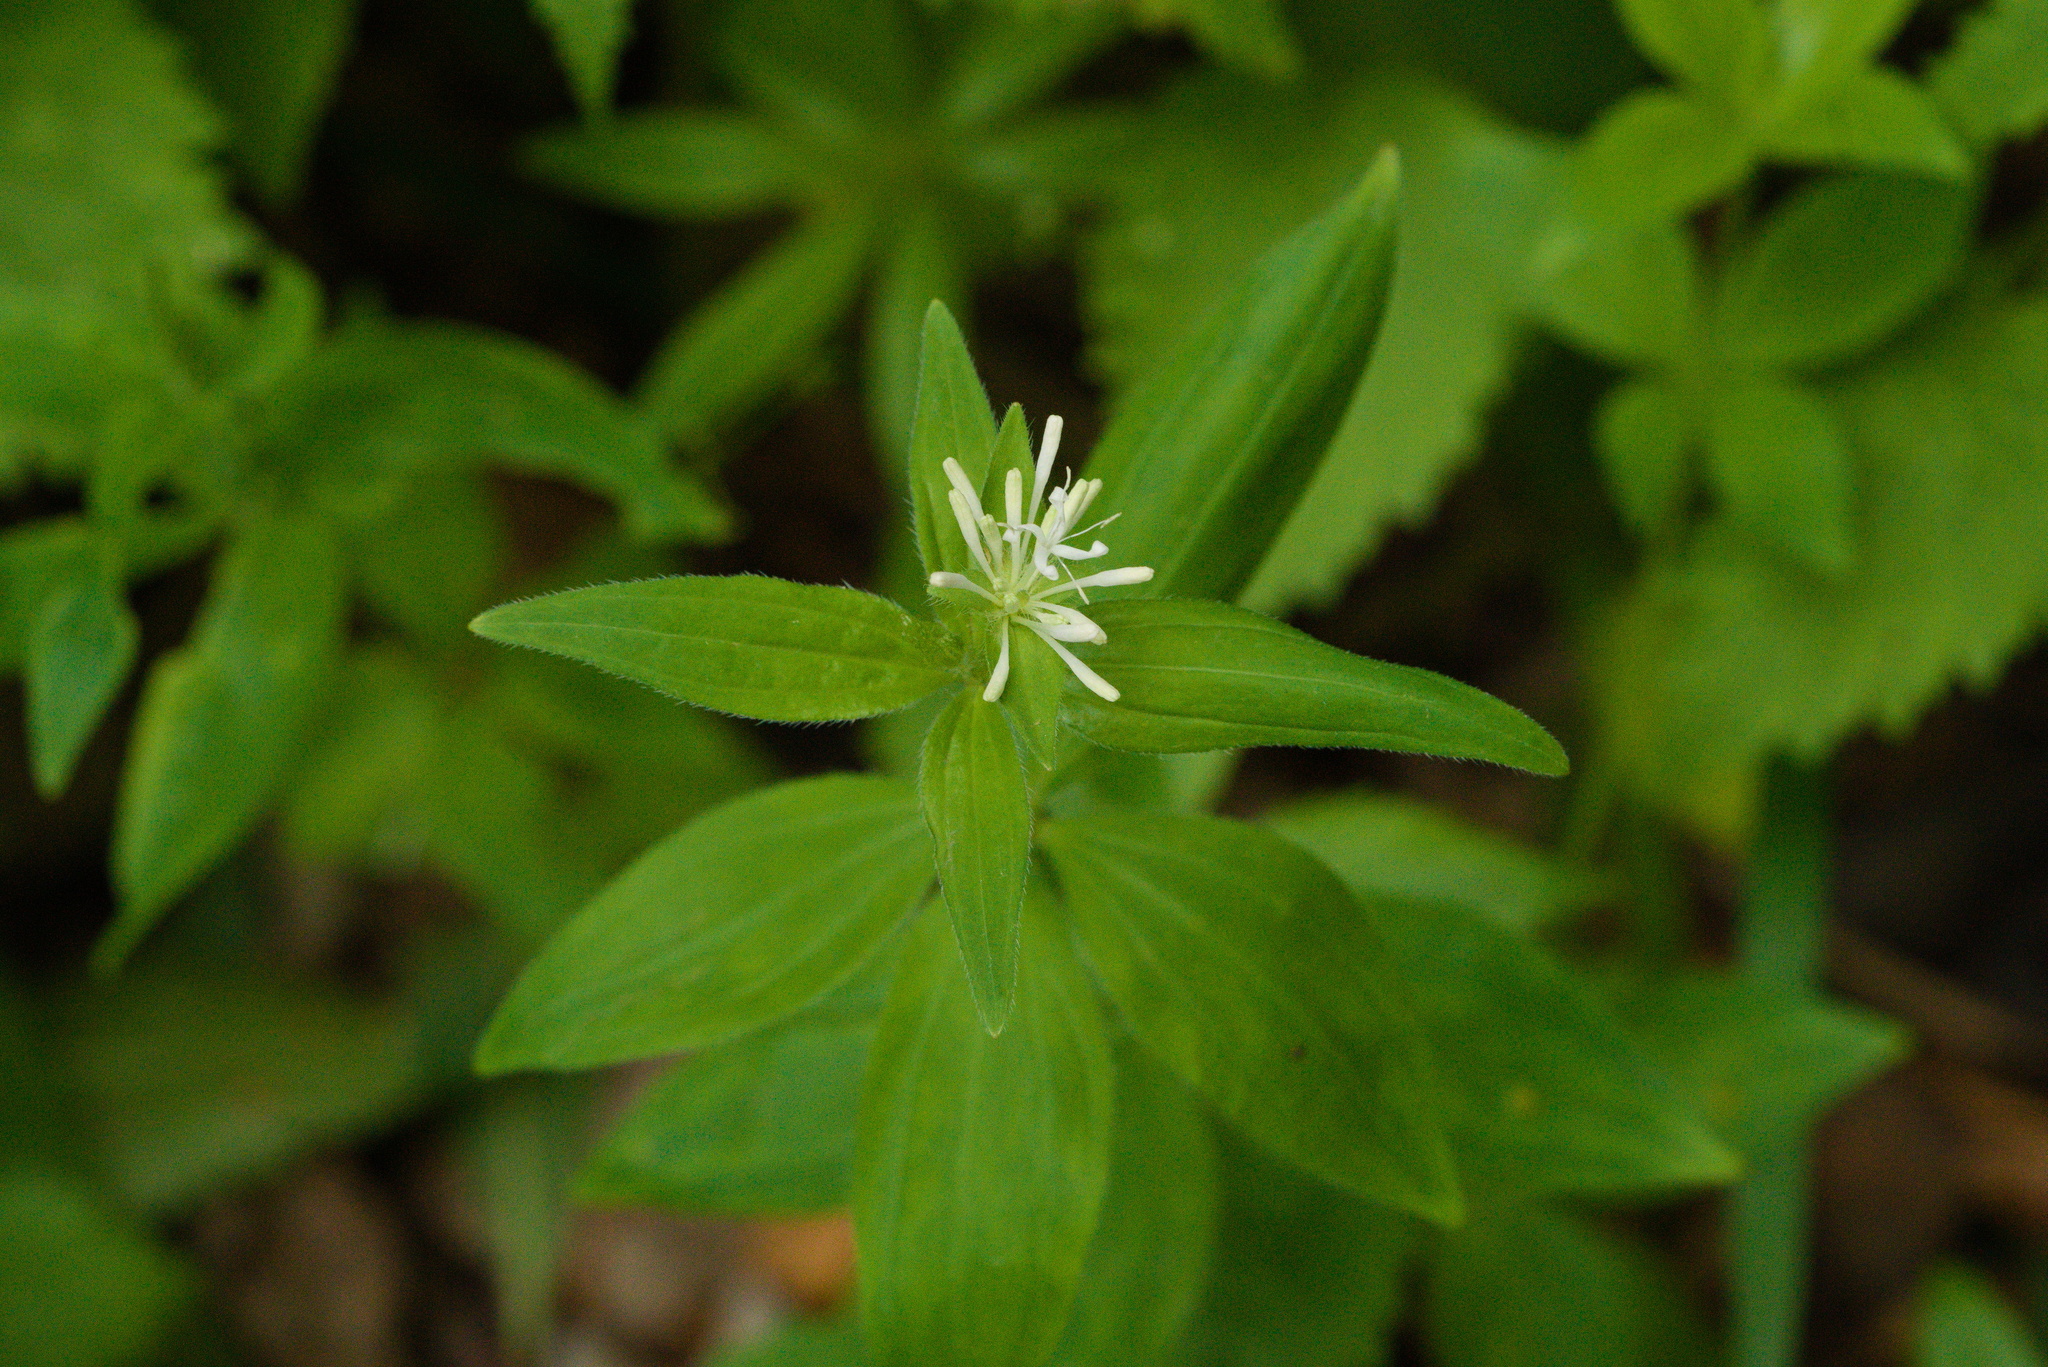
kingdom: Plantae
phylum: Tracheophyta
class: Magnoliopsida
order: Gentianales
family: Rubiaceae
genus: Asperula
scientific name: Asperula taurina
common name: Pink woodruff
